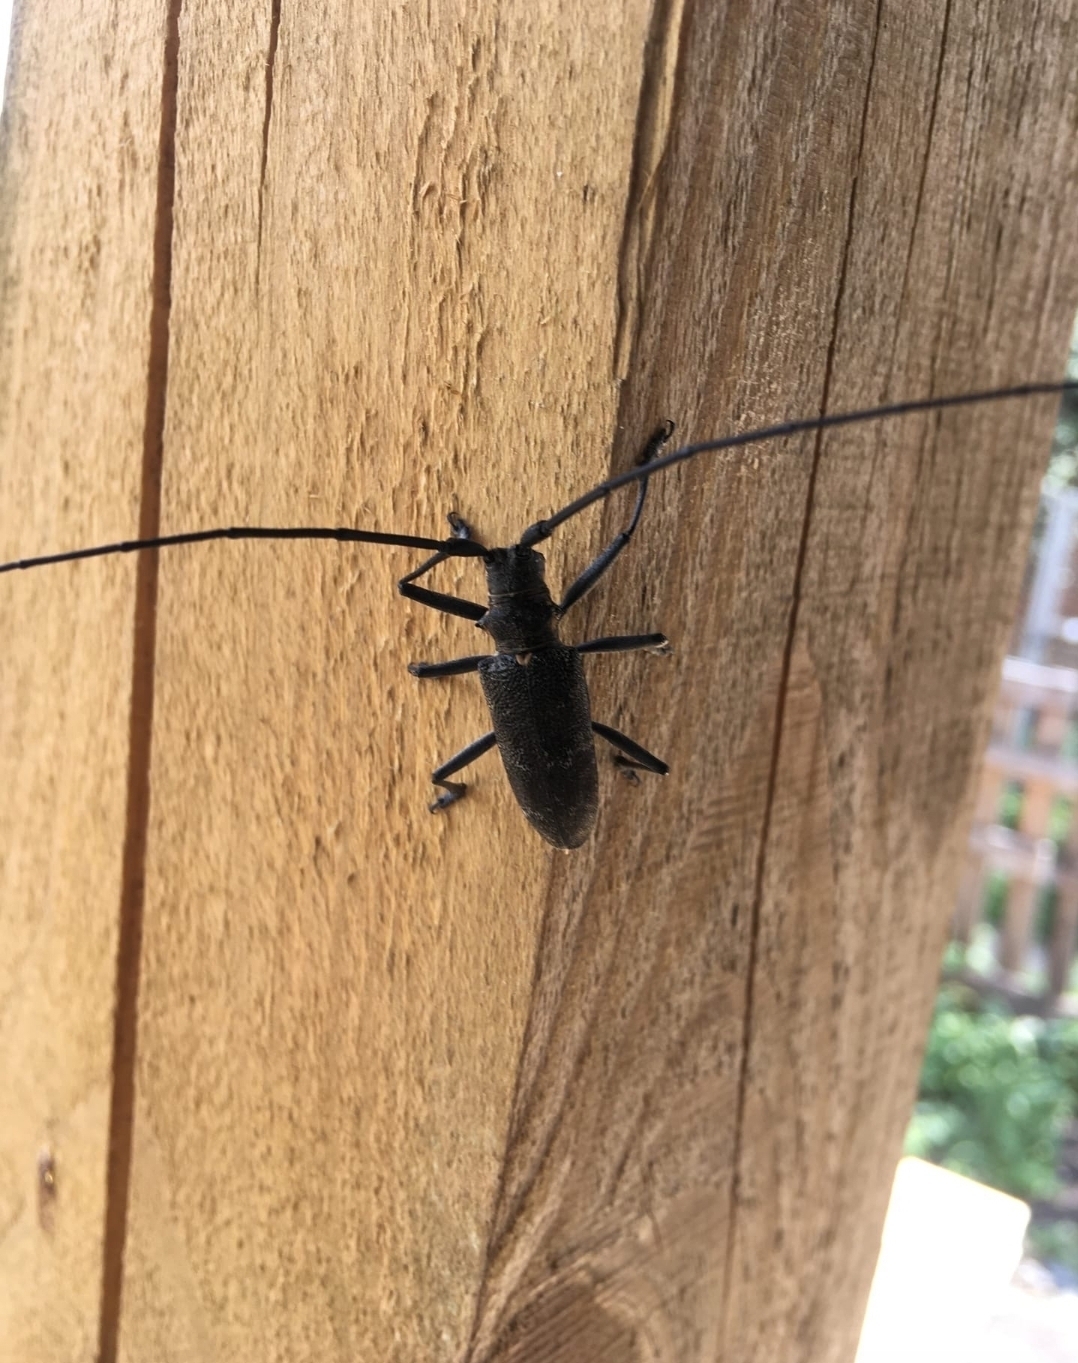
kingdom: Animalia
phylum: Arthropoda
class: Insecta
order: Coleoptera
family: Cerambycidae
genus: Monochamus
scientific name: Monochamus galloprovincialis
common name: Pine sawyer
